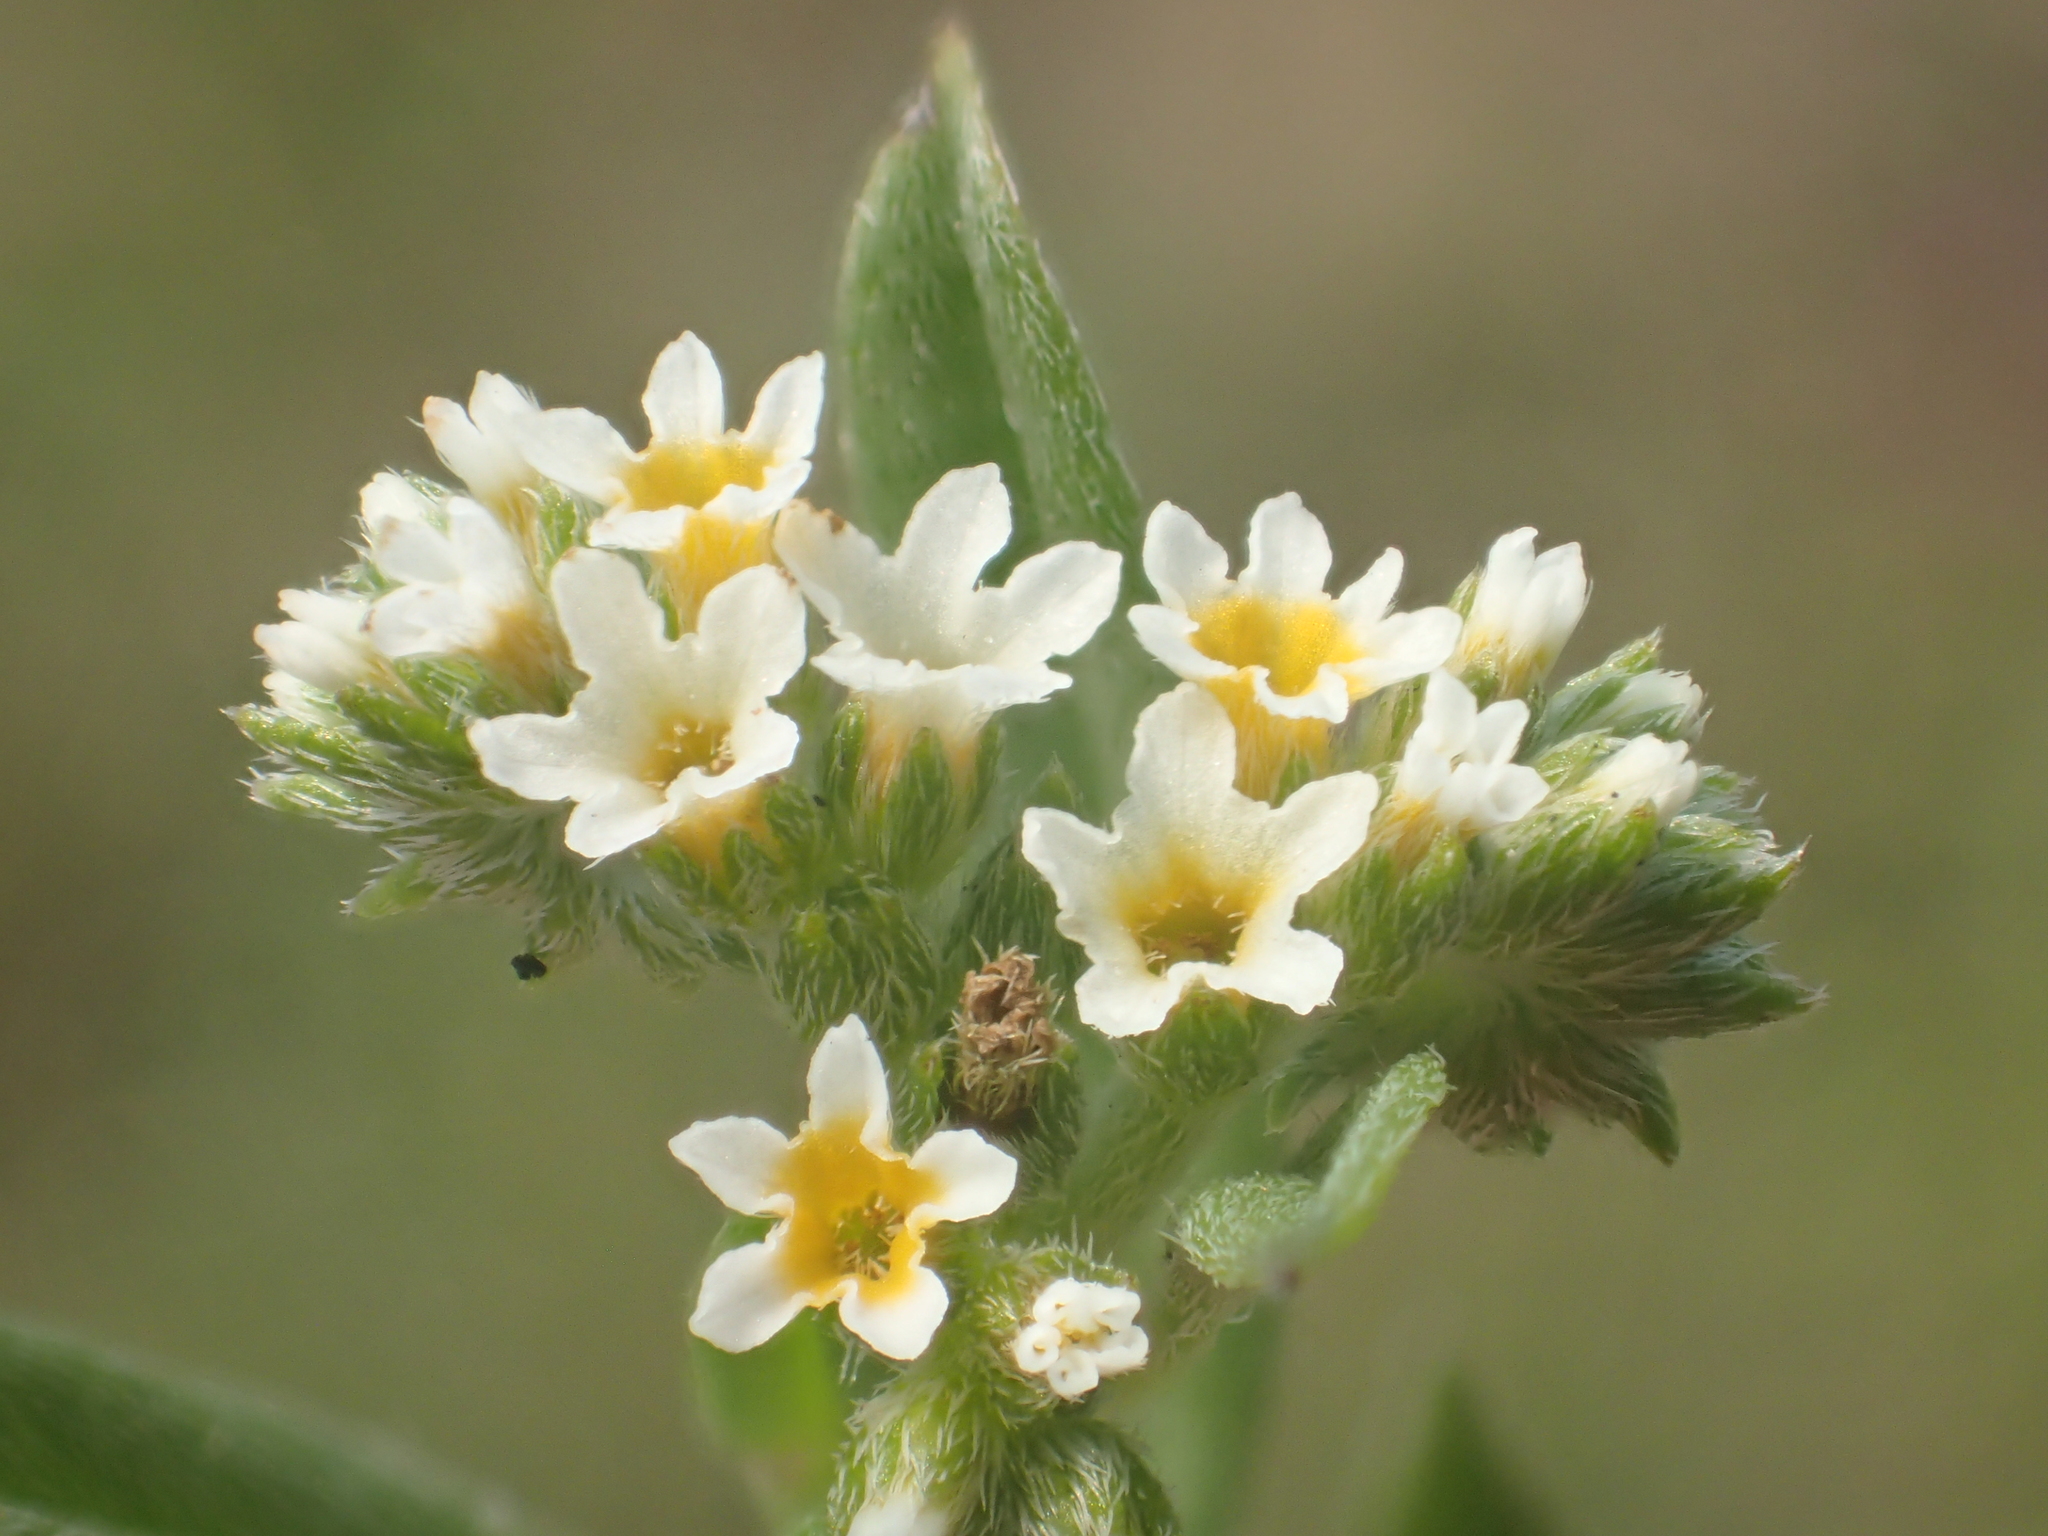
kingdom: Plantae
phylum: Tracheophyta
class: Magnoliopsida
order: Boraginales
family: Heliotropiaceae
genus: Euploca
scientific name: Euploca procumbens
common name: Fourspike heliotrope
